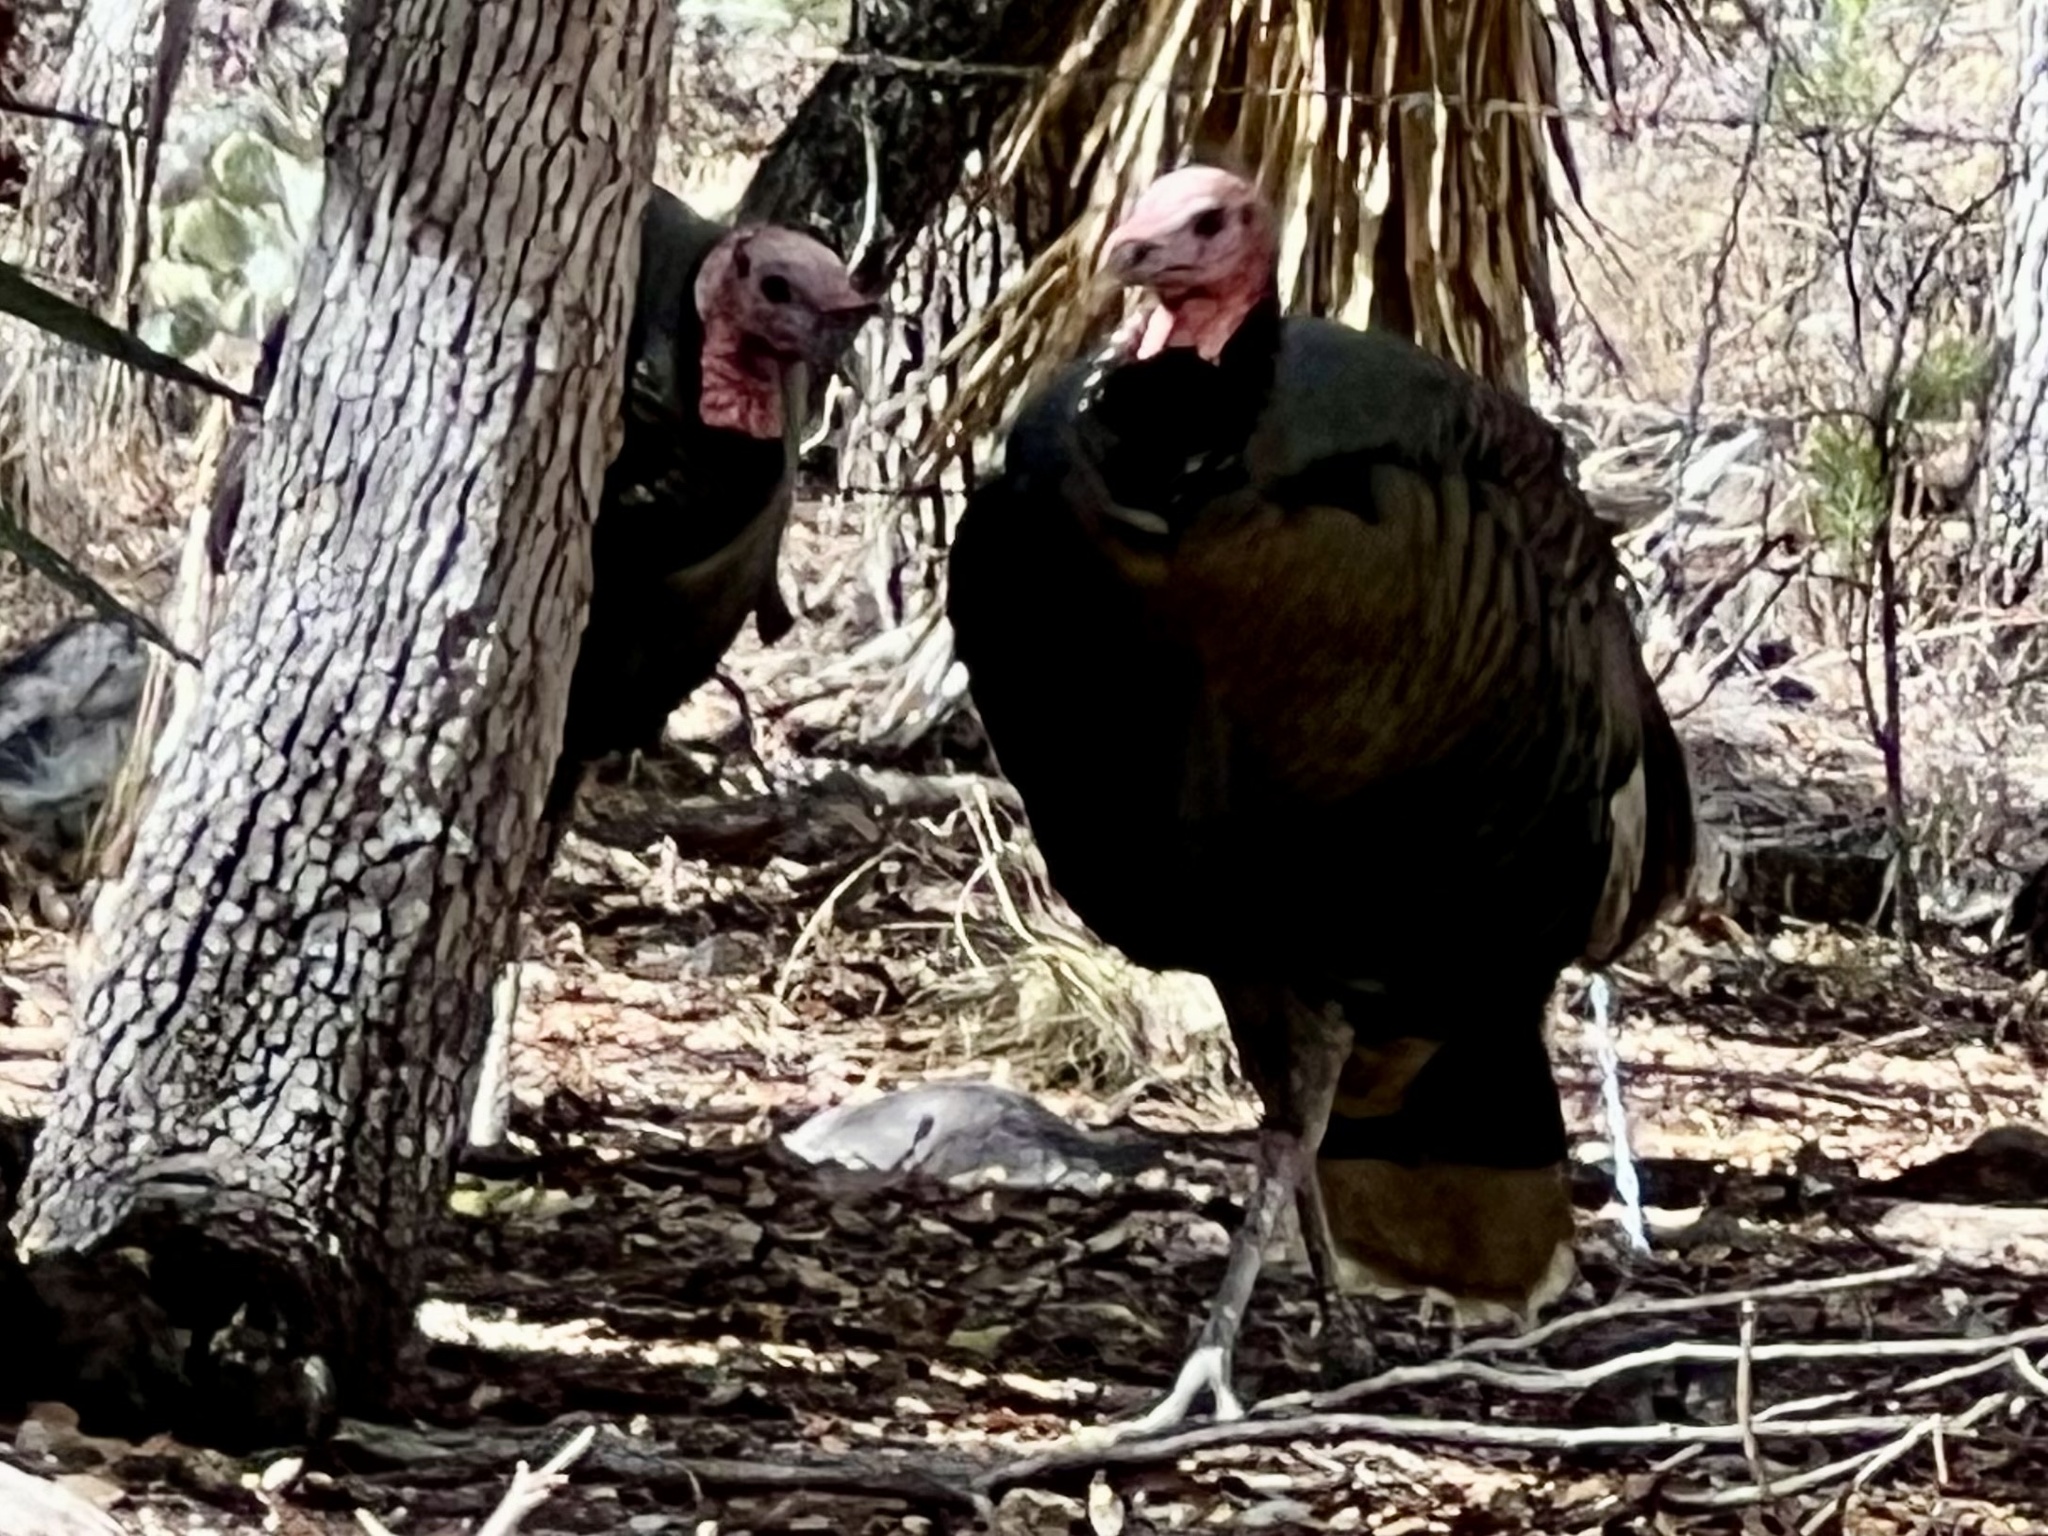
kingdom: Animalia
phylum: Chordata
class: Aves
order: Galliformes
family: Phasianidae
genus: Meleagris
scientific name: Meleagris gallopavo
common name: Wild turkey
